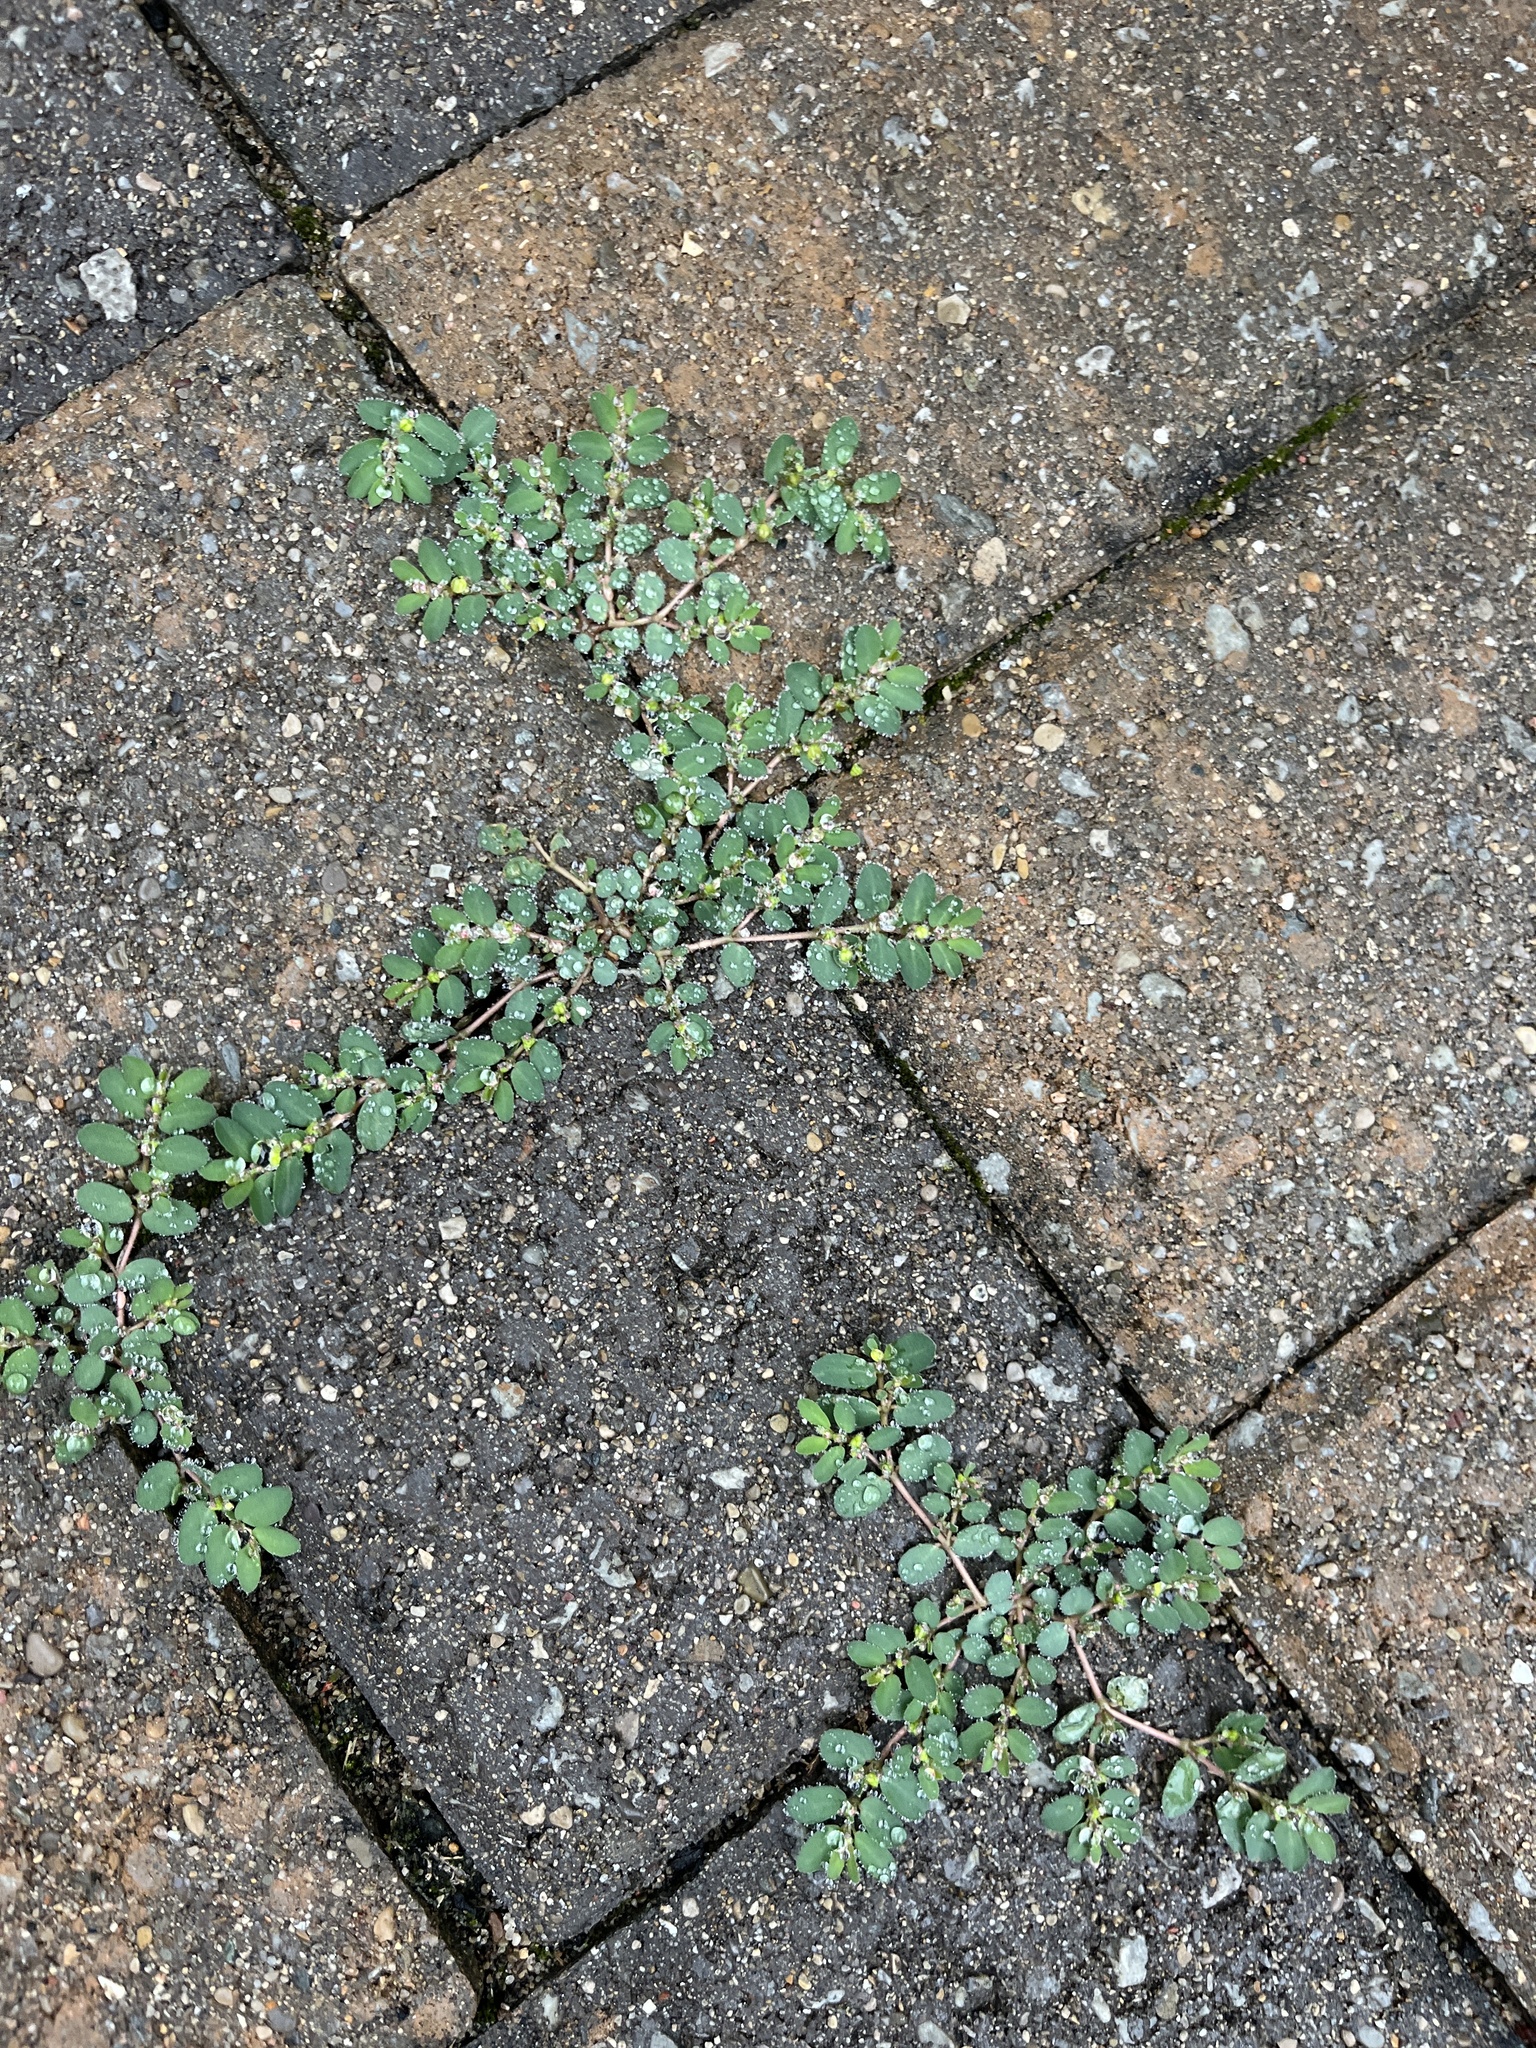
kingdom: Plantae
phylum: Tracheophyta
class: Magnoliopsida
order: Malpighiales
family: Euphorbiaceae
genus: Euphorbia
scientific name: Euphorbia prostrata
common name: Prostrate sandmat
